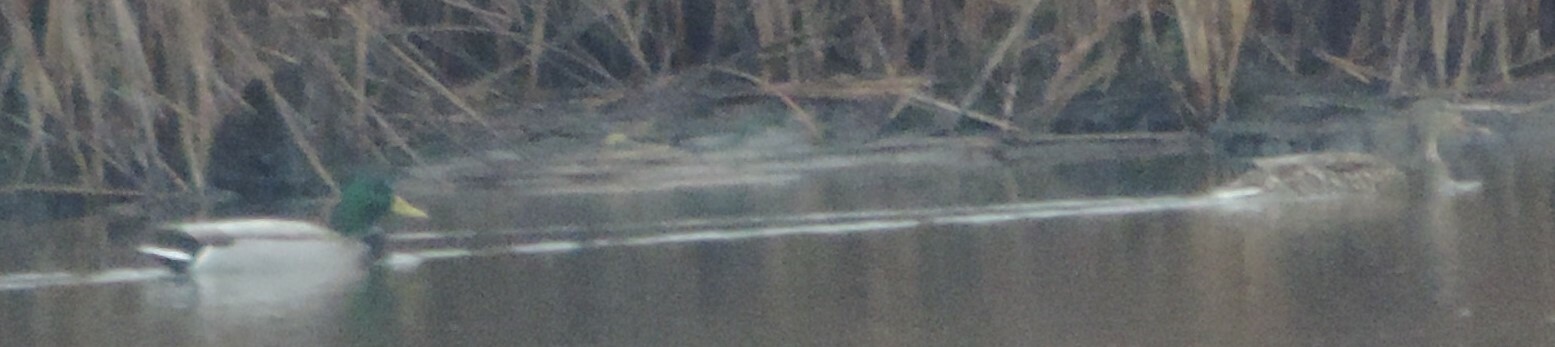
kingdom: Animalia
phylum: Chordata
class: Aves
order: Anseriformes
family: Anatidae
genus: Anas
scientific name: Anas platyrhynchos
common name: Mallard
